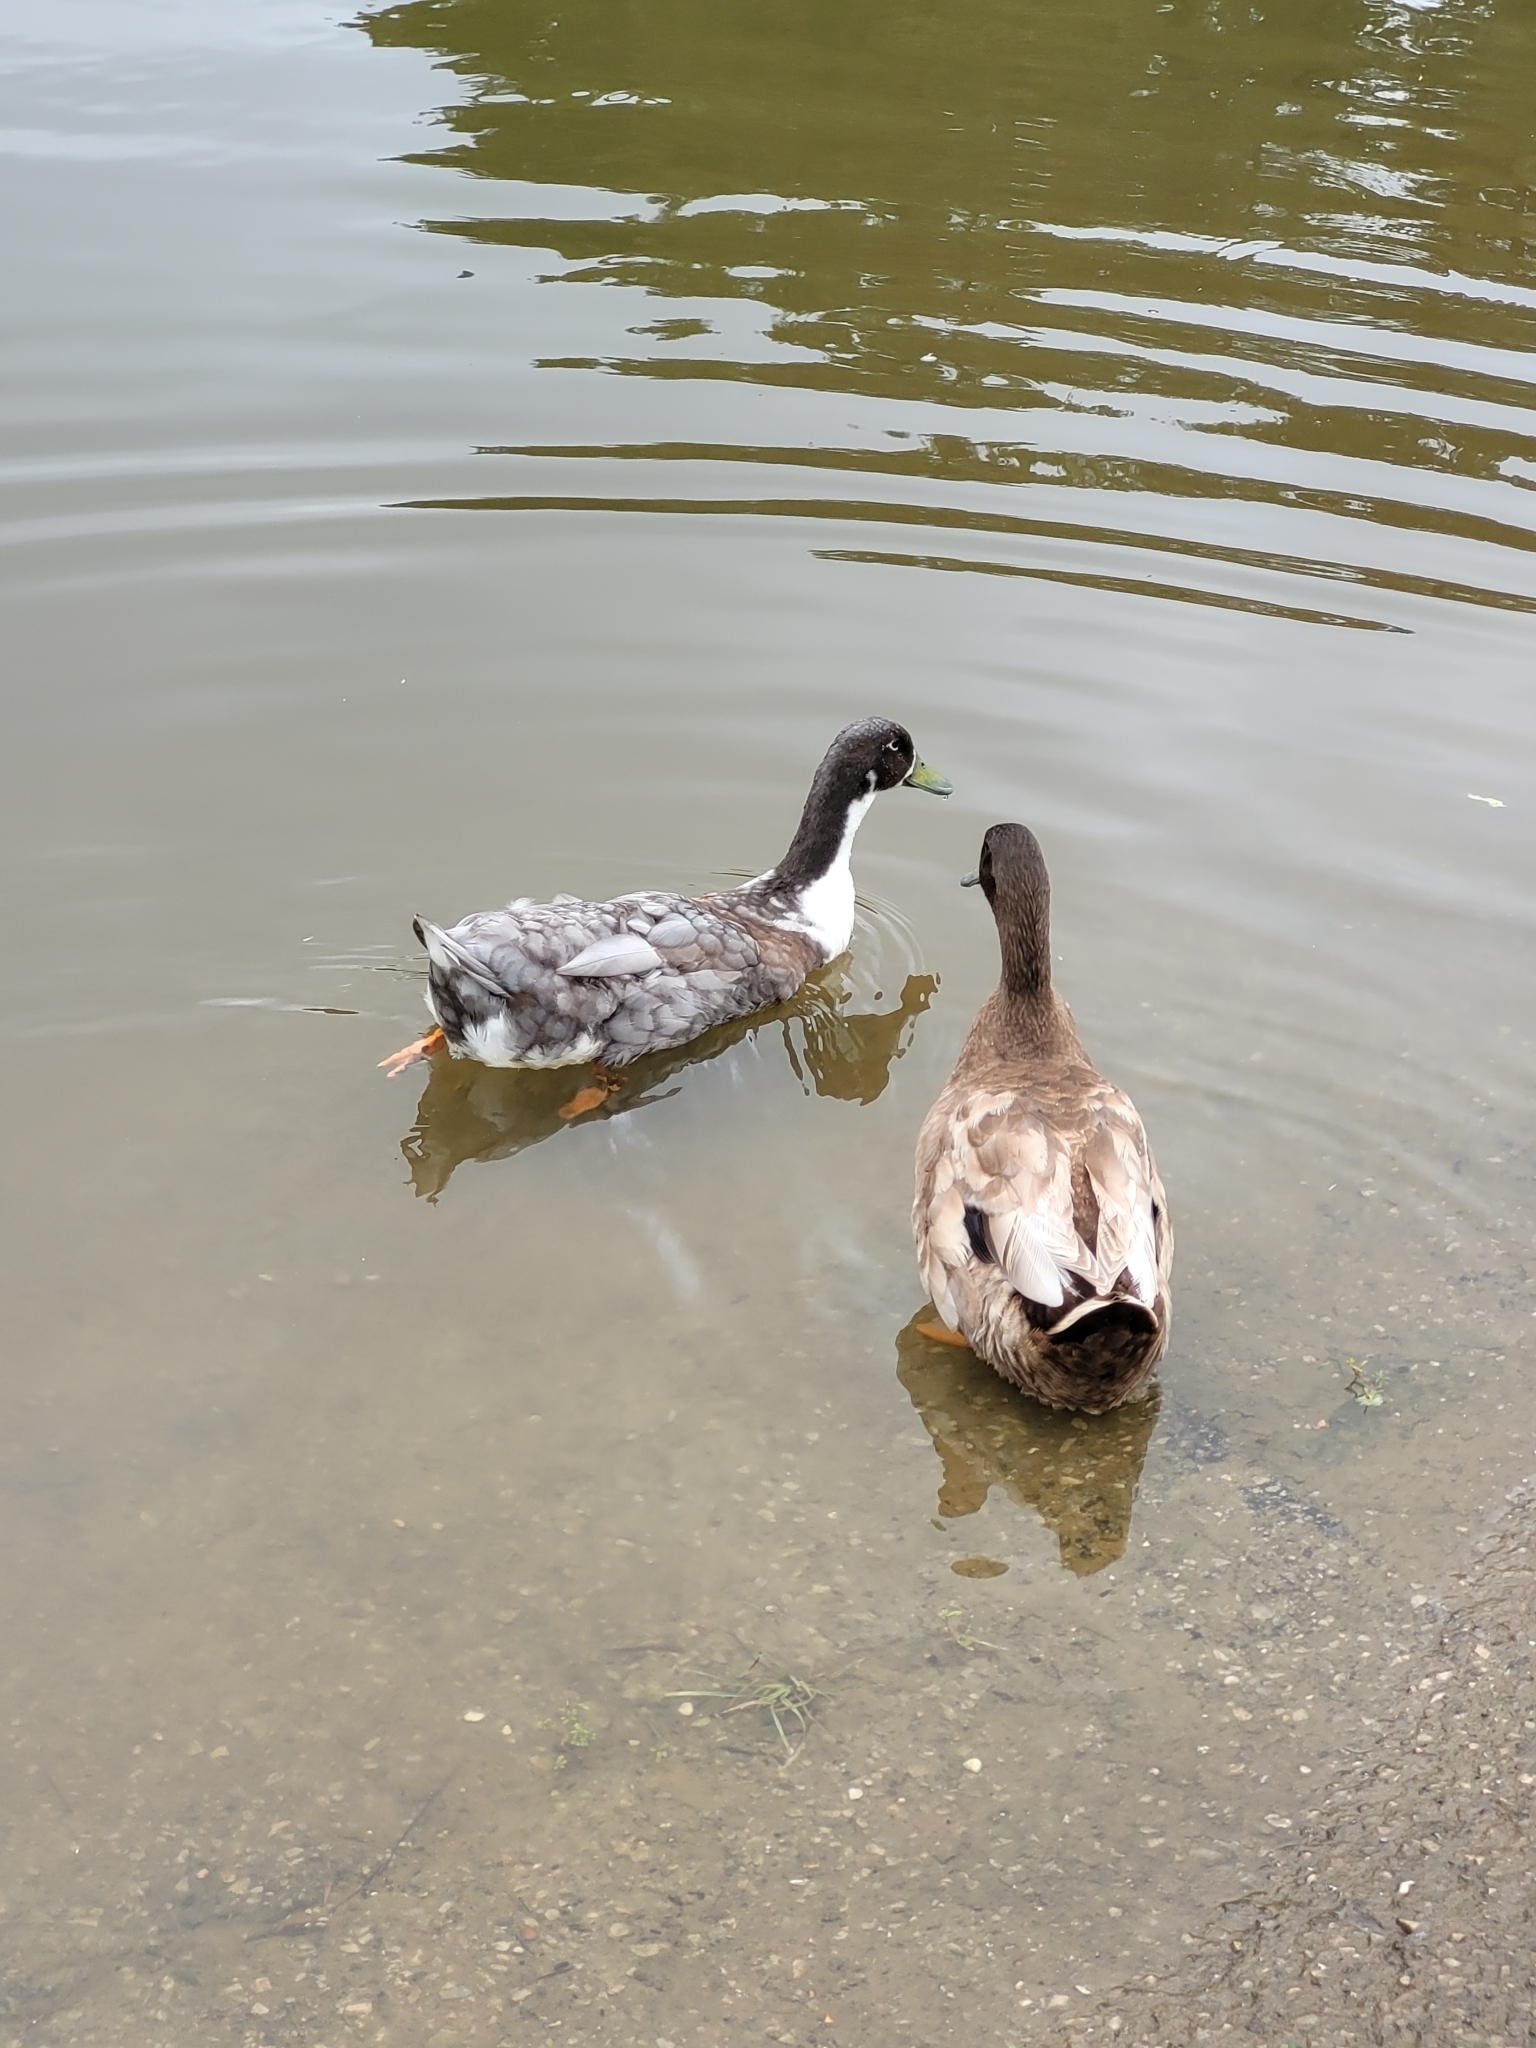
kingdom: Animalia
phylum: Chordata
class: Aves
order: Anseriformes
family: Anatidae
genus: Anas
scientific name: Anas platyrhynchos
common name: Mallard
